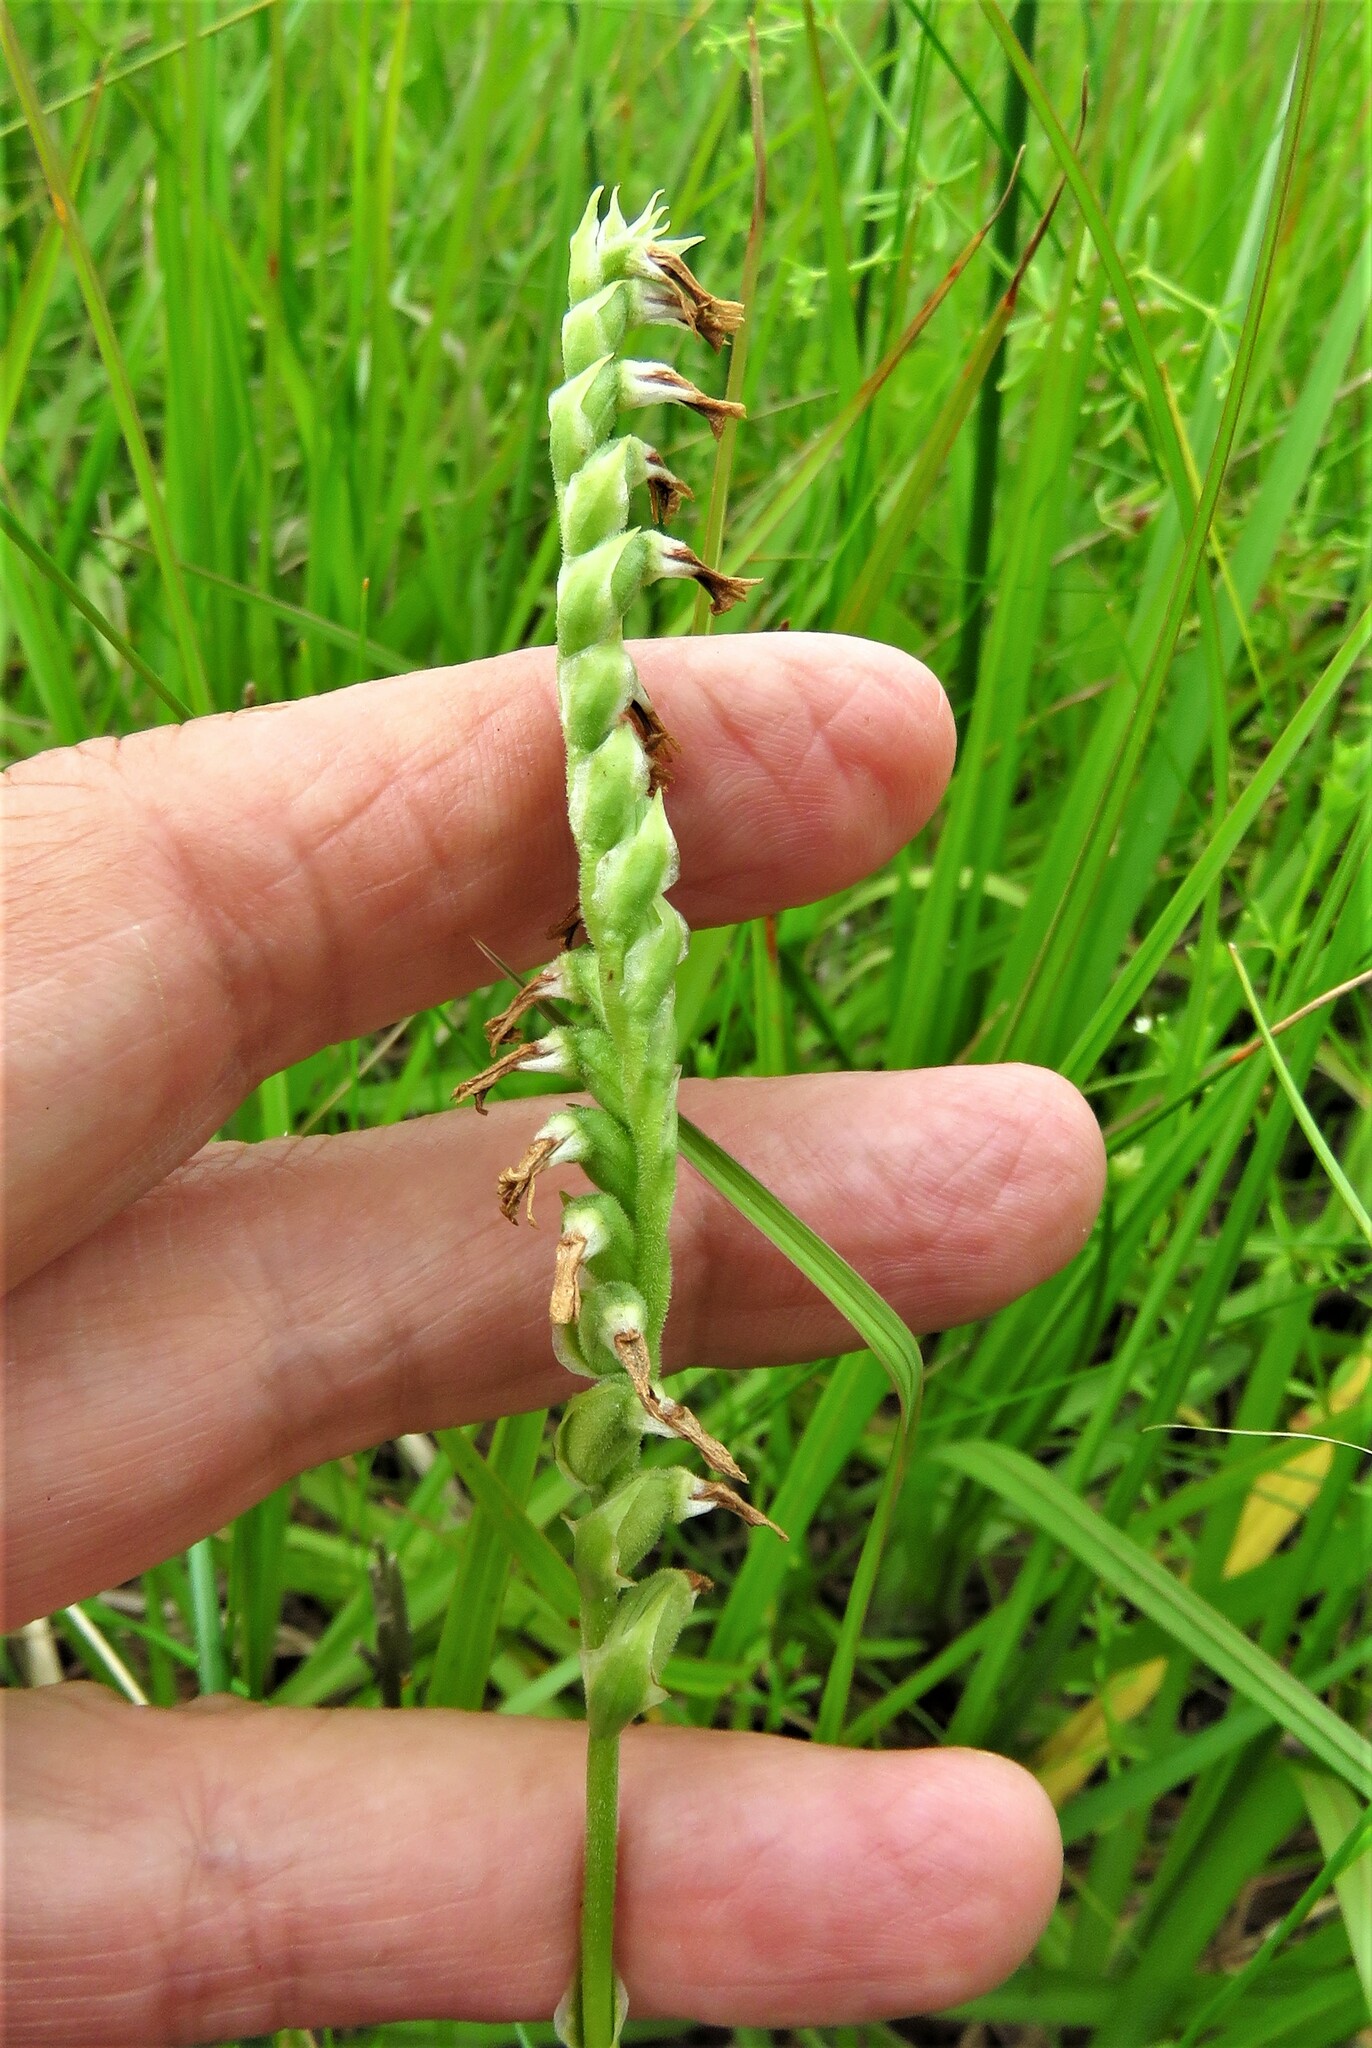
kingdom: Plantae
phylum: Tracheophyta
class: Liliopsida
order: Asparagales
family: Orchidaceae
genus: Spiranthes
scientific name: Spiranthes vernalis
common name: Spring ladies'-tresses
